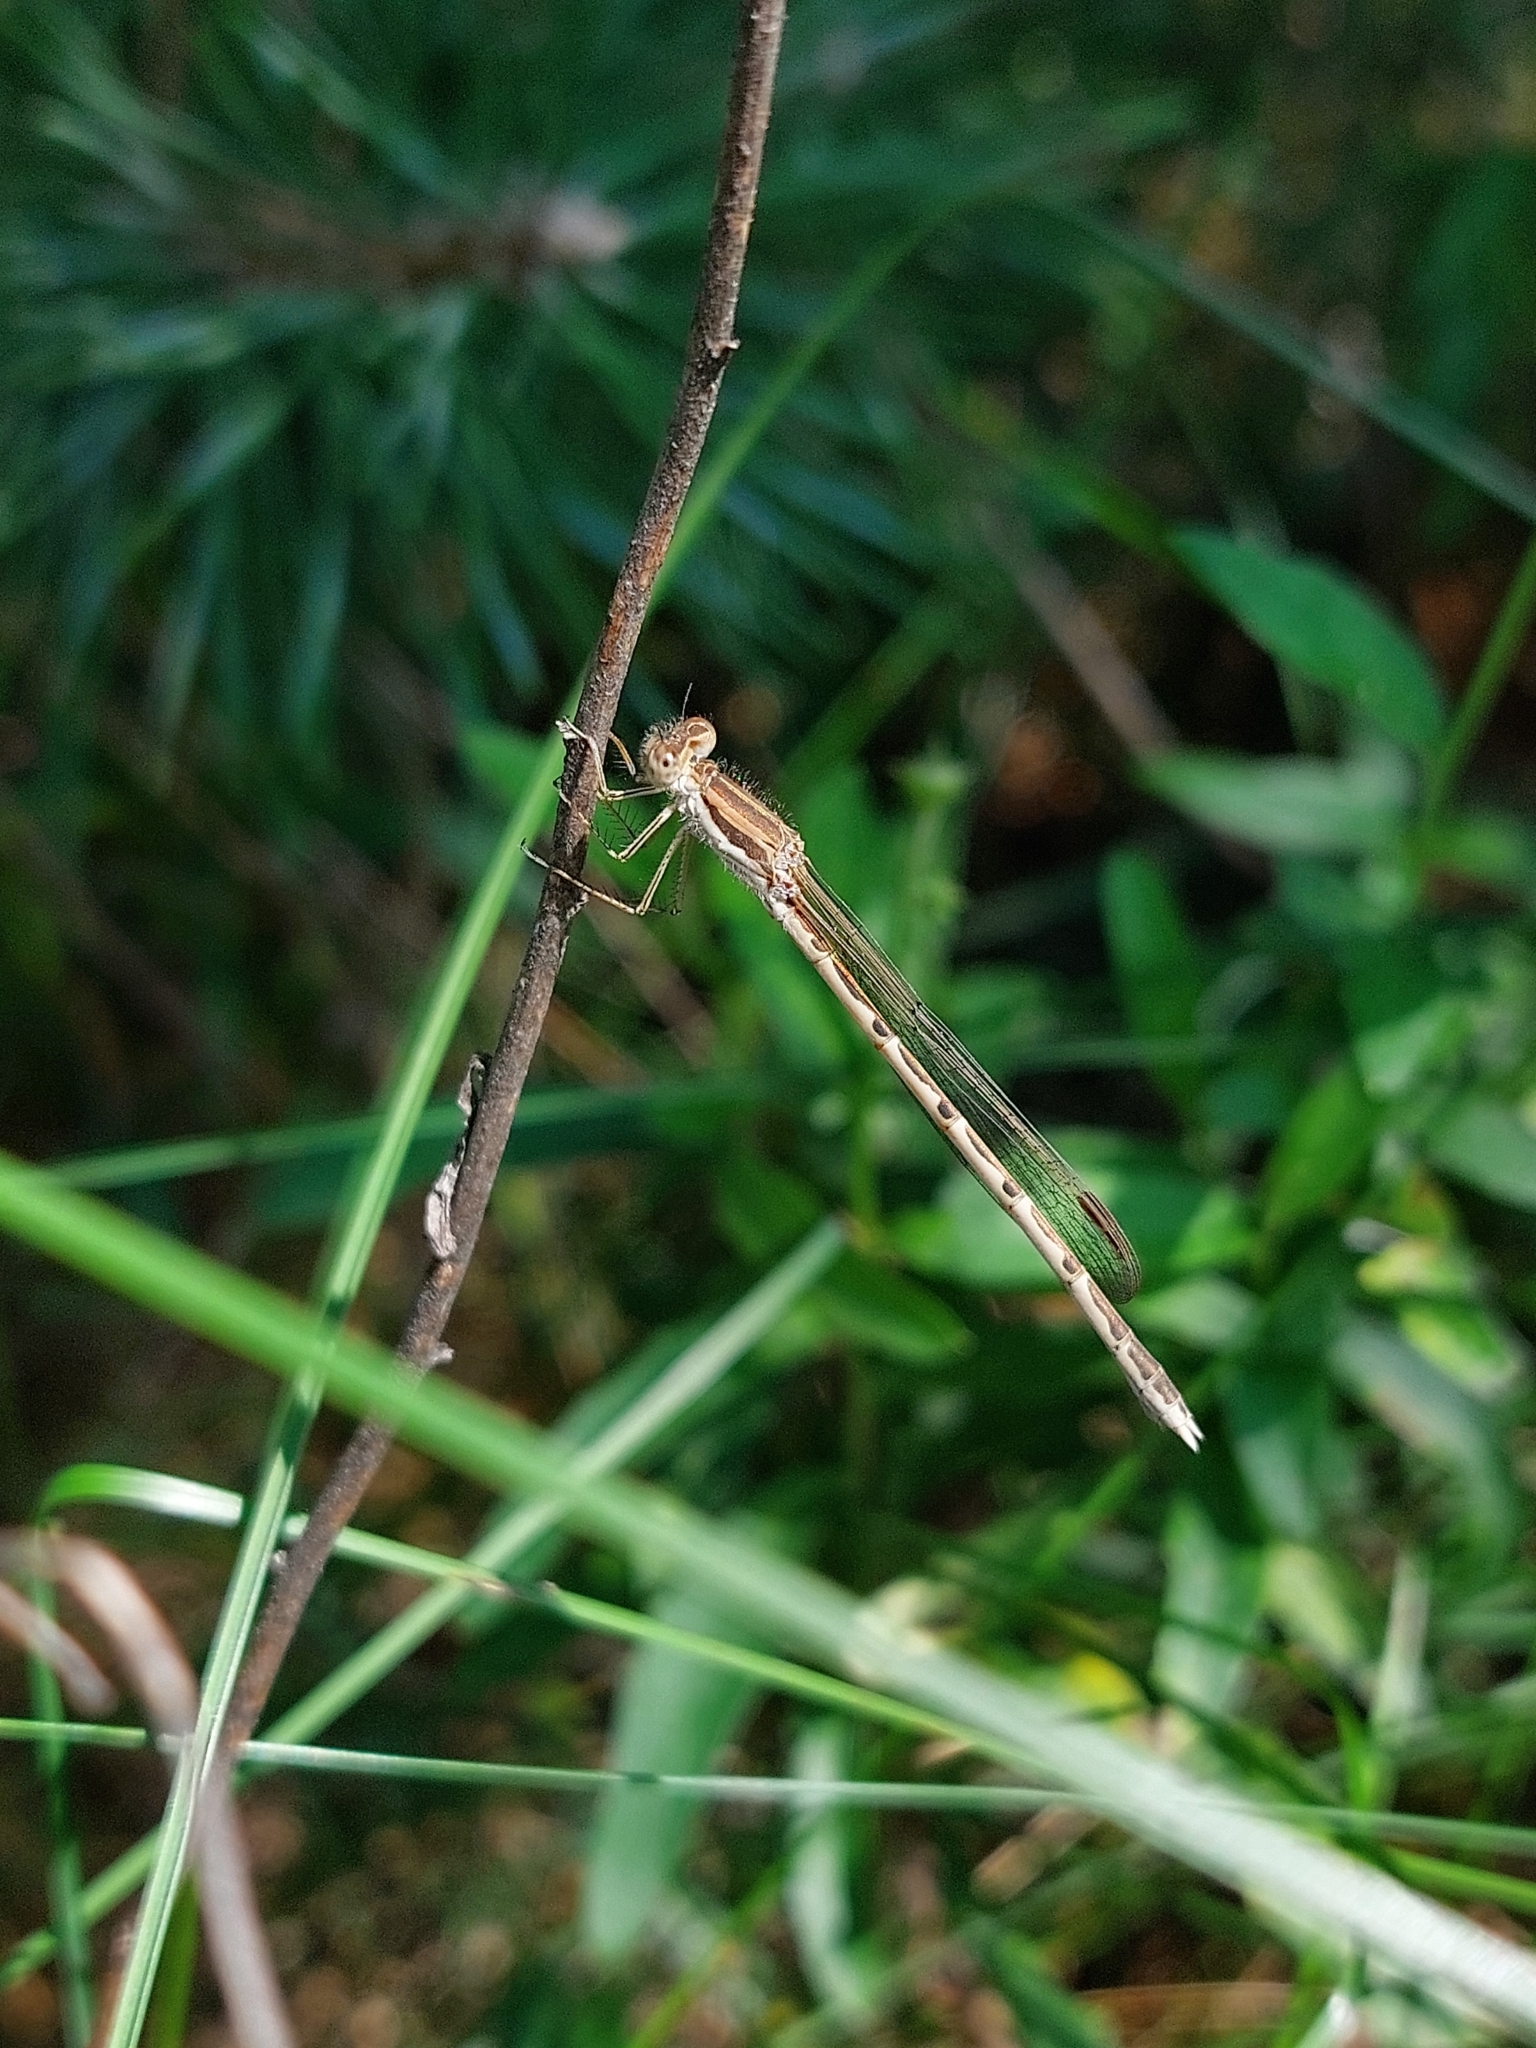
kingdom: Animalia
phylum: Arthropoda
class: Insecta
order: Odonata
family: Lestidae
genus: Sympecma
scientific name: Sympecma fusca
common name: Common winter damsel
